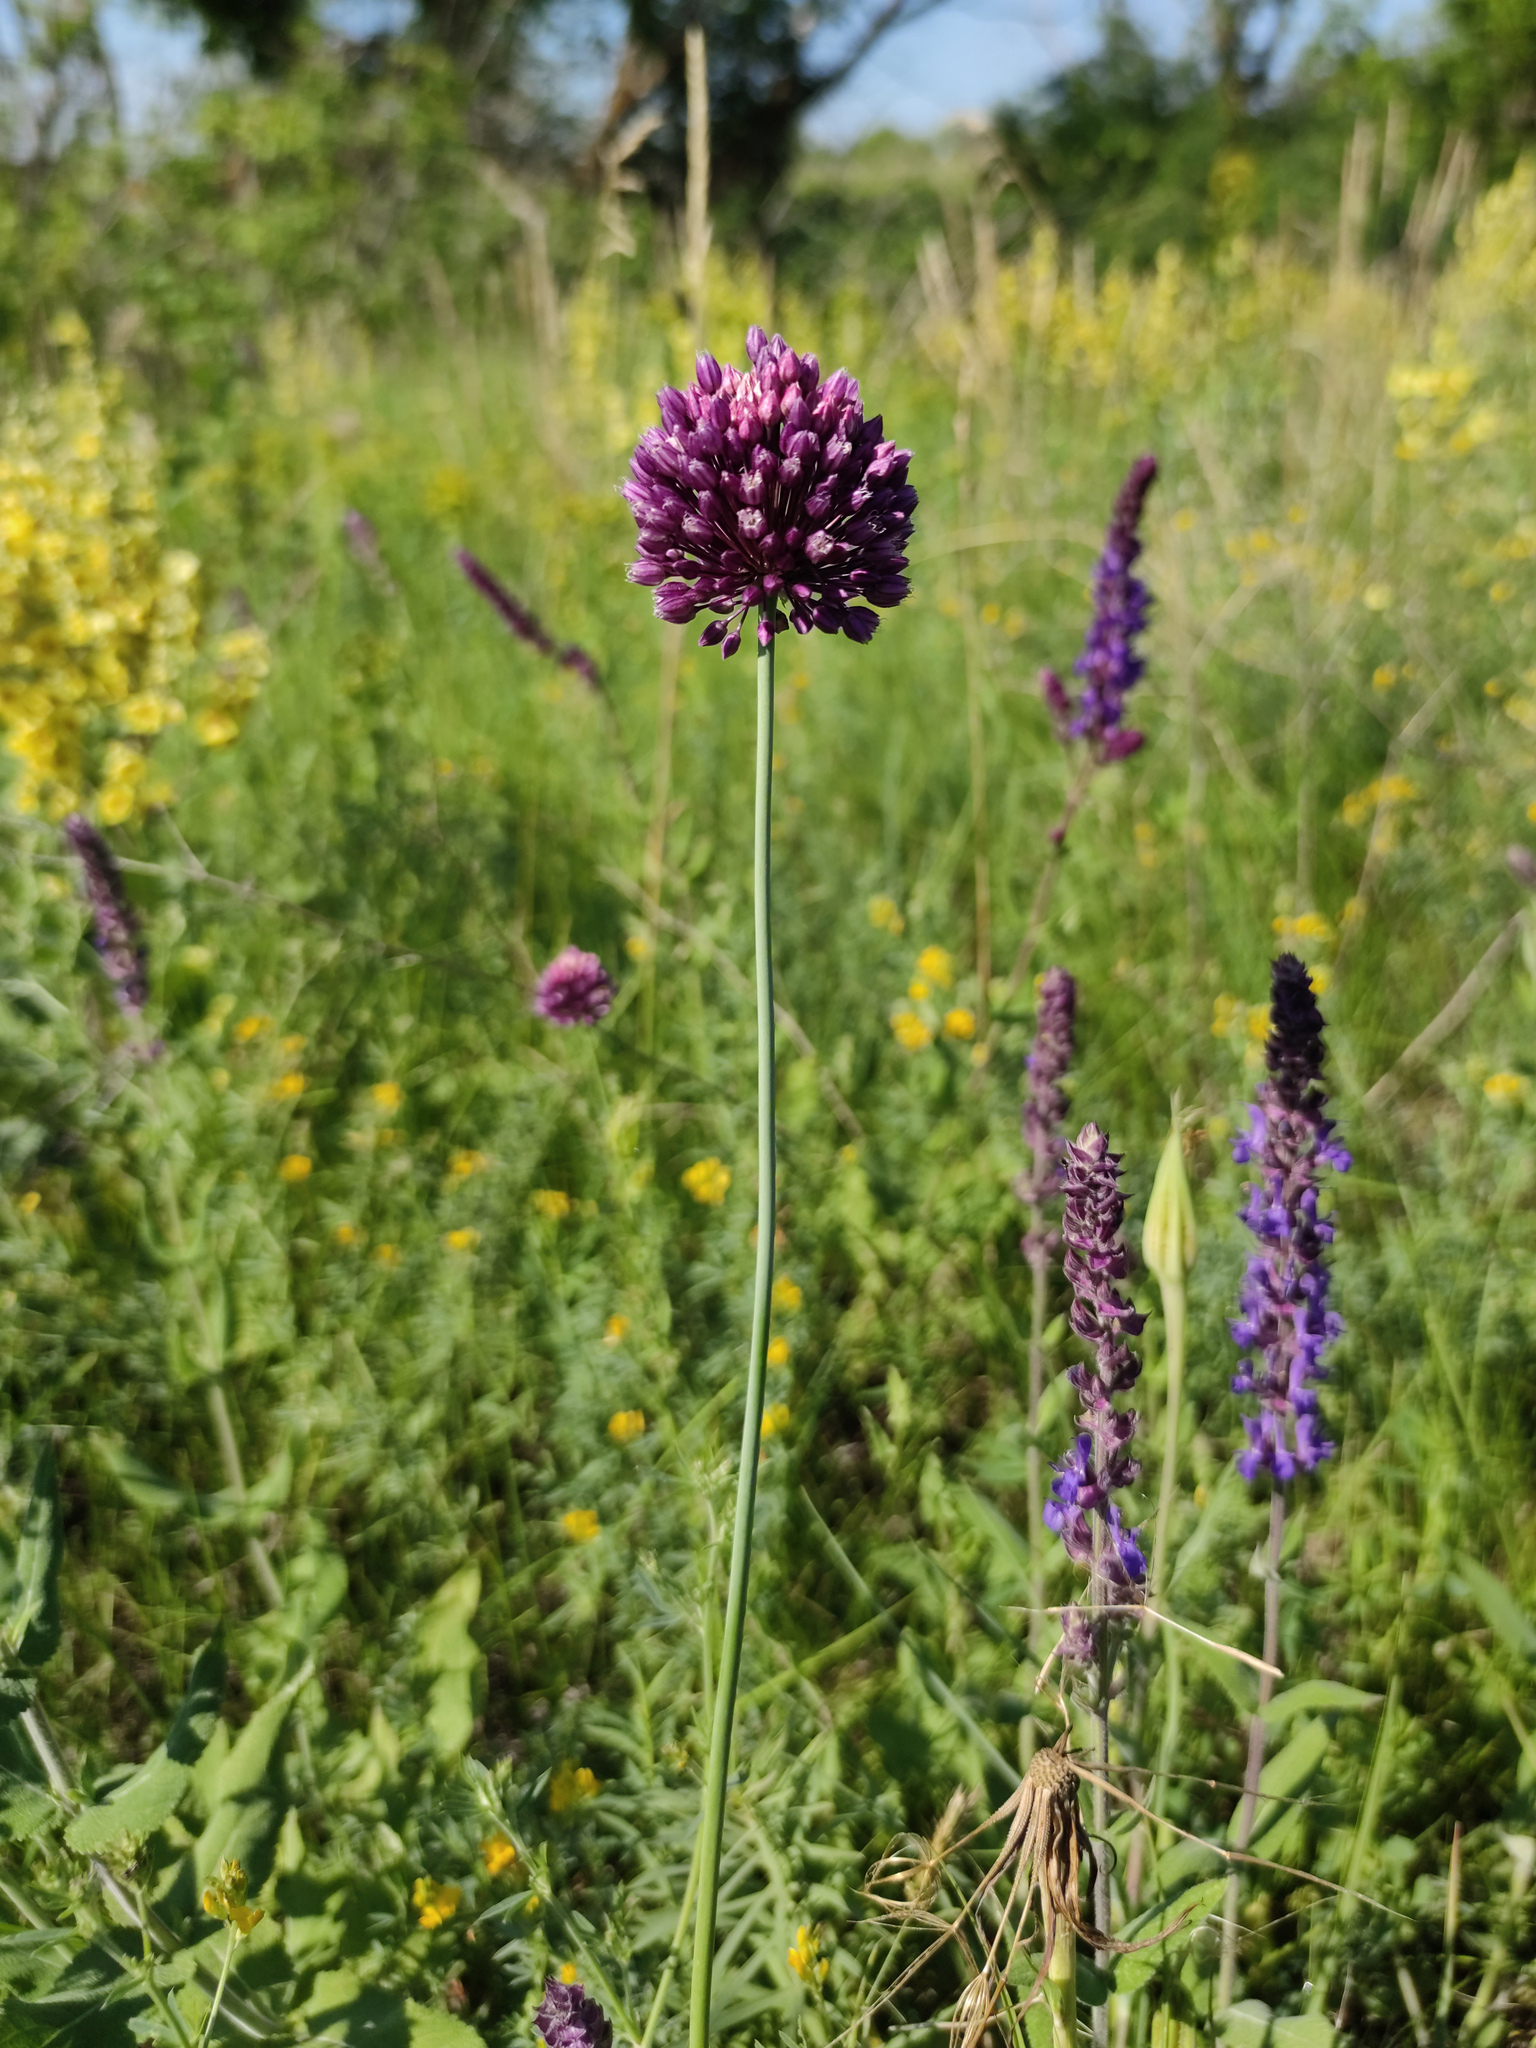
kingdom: Plantae
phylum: Tracheophyta
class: Liliopsida
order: Asparagales
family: Amaryllidaceae
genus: Allium
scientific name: Allium rotundum
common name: Sand leek
